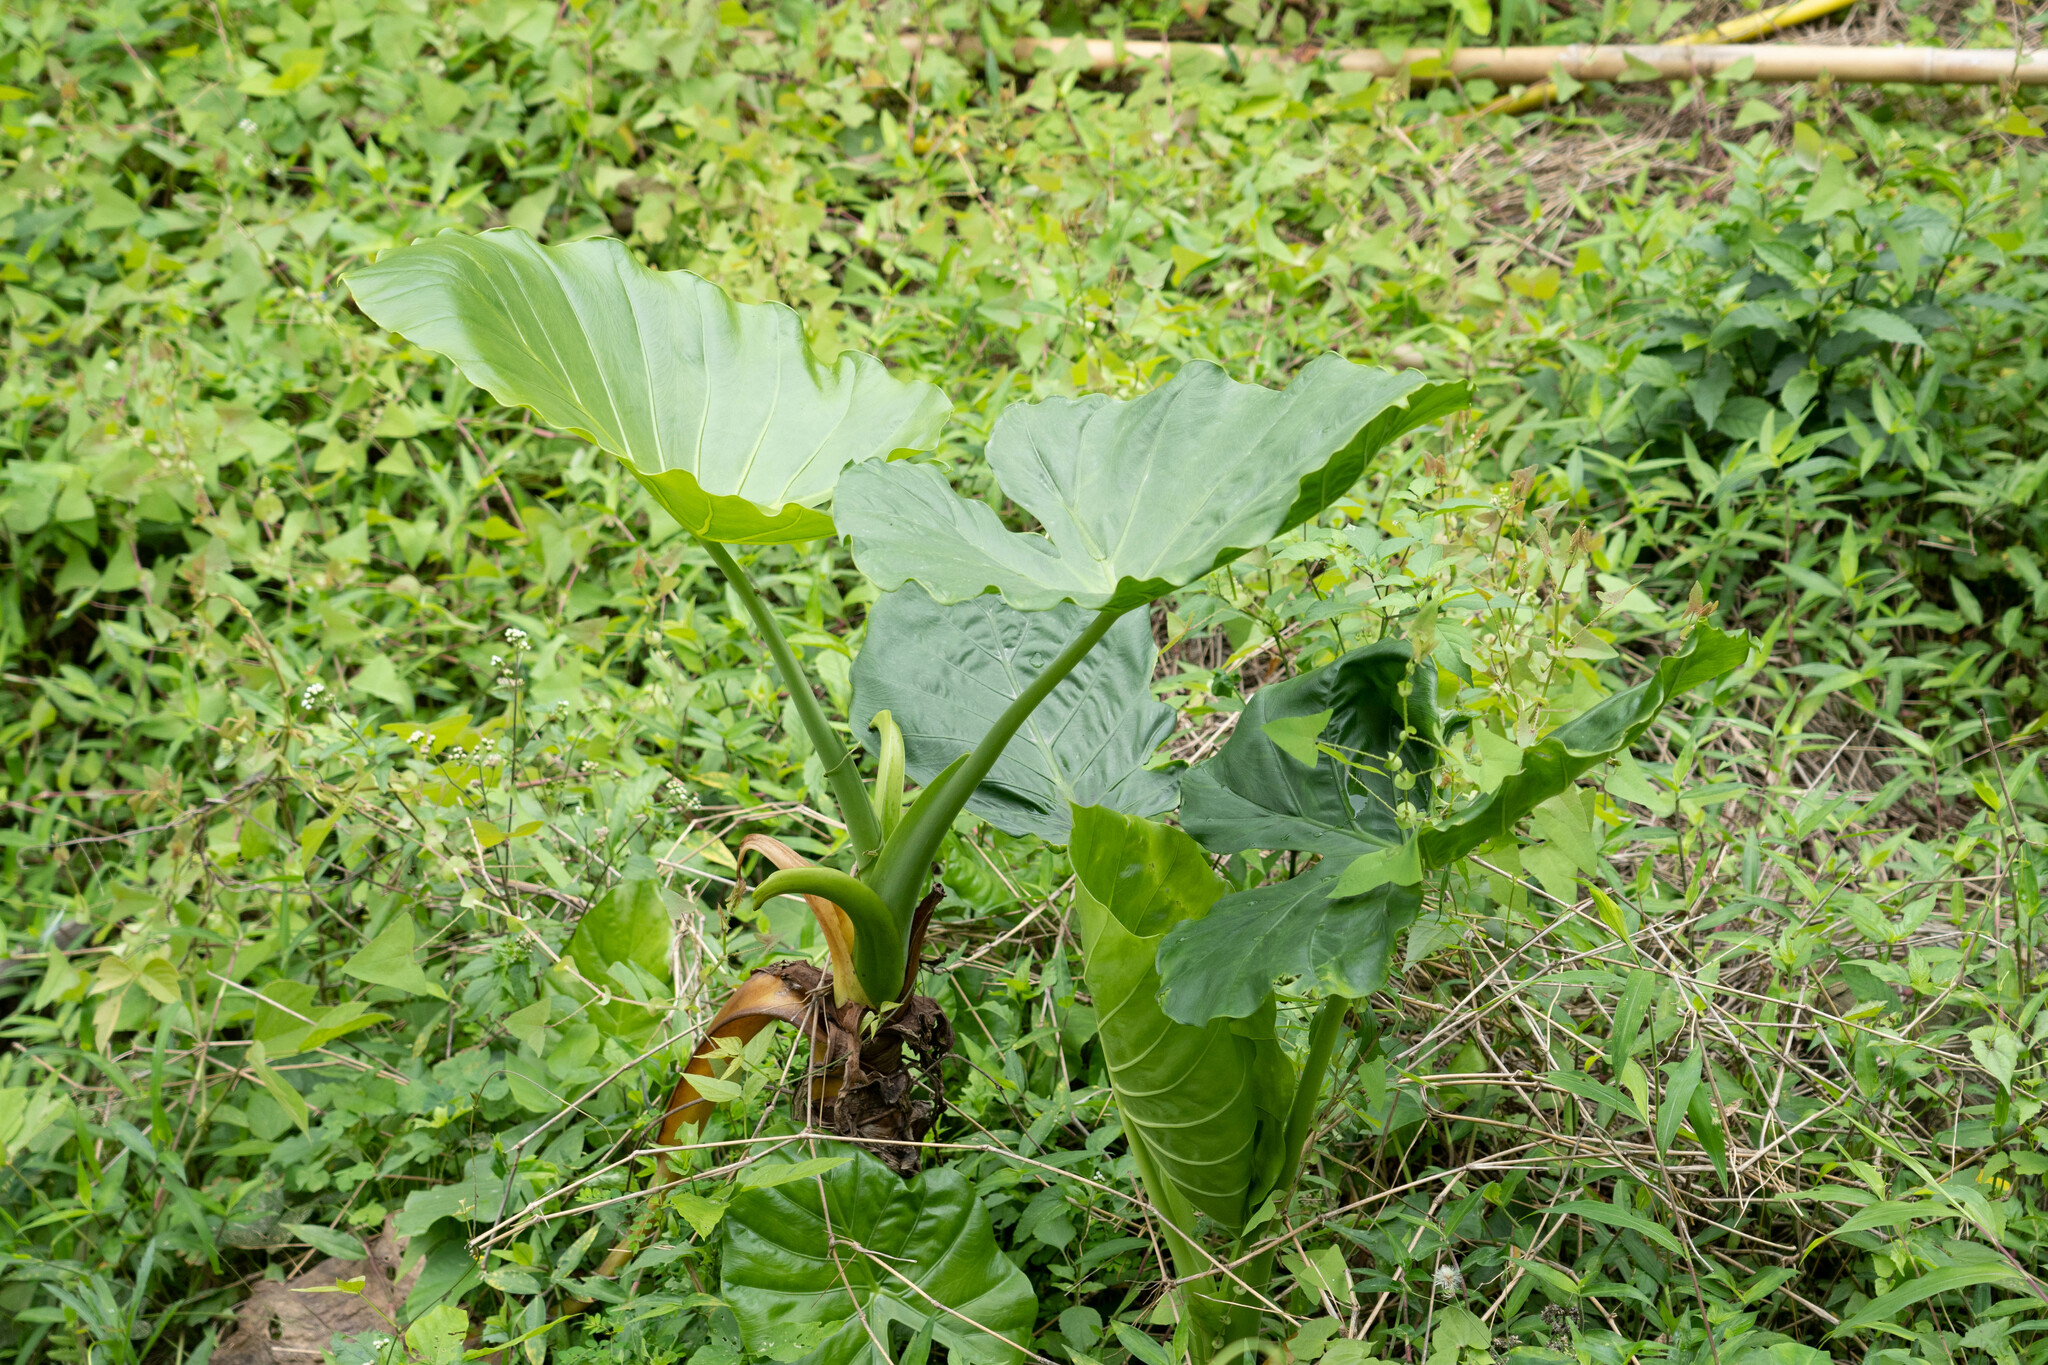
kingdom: Plantae
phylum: Tracheophyta
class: Liliopsida
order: Alismatales
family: Araceae
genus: Alocasia
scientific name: Alocasia odora
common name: Asian taro
